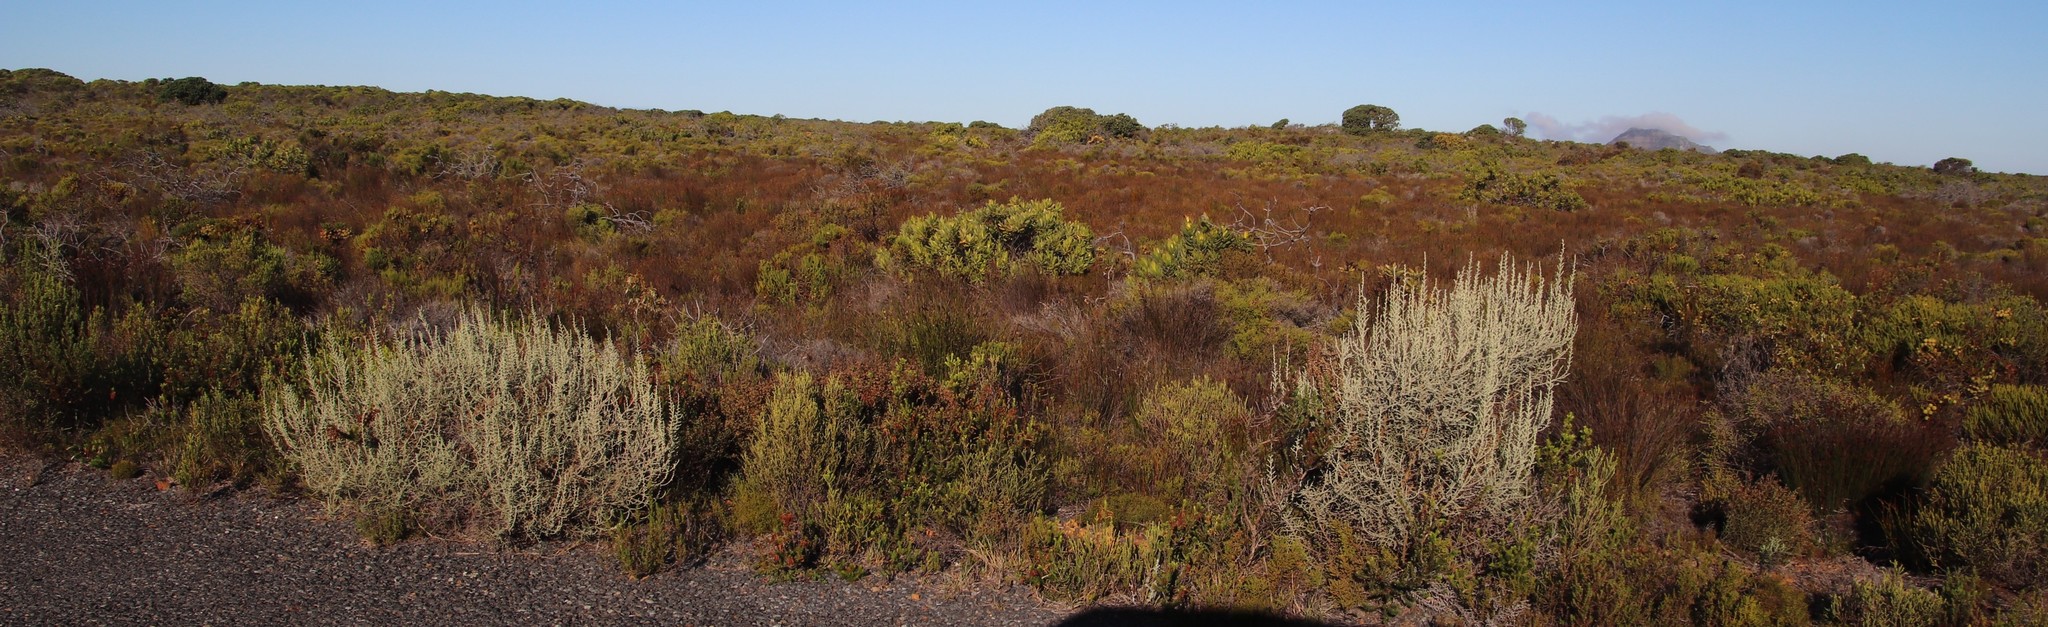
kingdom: Plantae
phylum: Tracheophyta
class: Magnoliopsida
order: Asterales
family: Asteraceae
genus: Seriphium
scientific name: Seriphium plumosum
